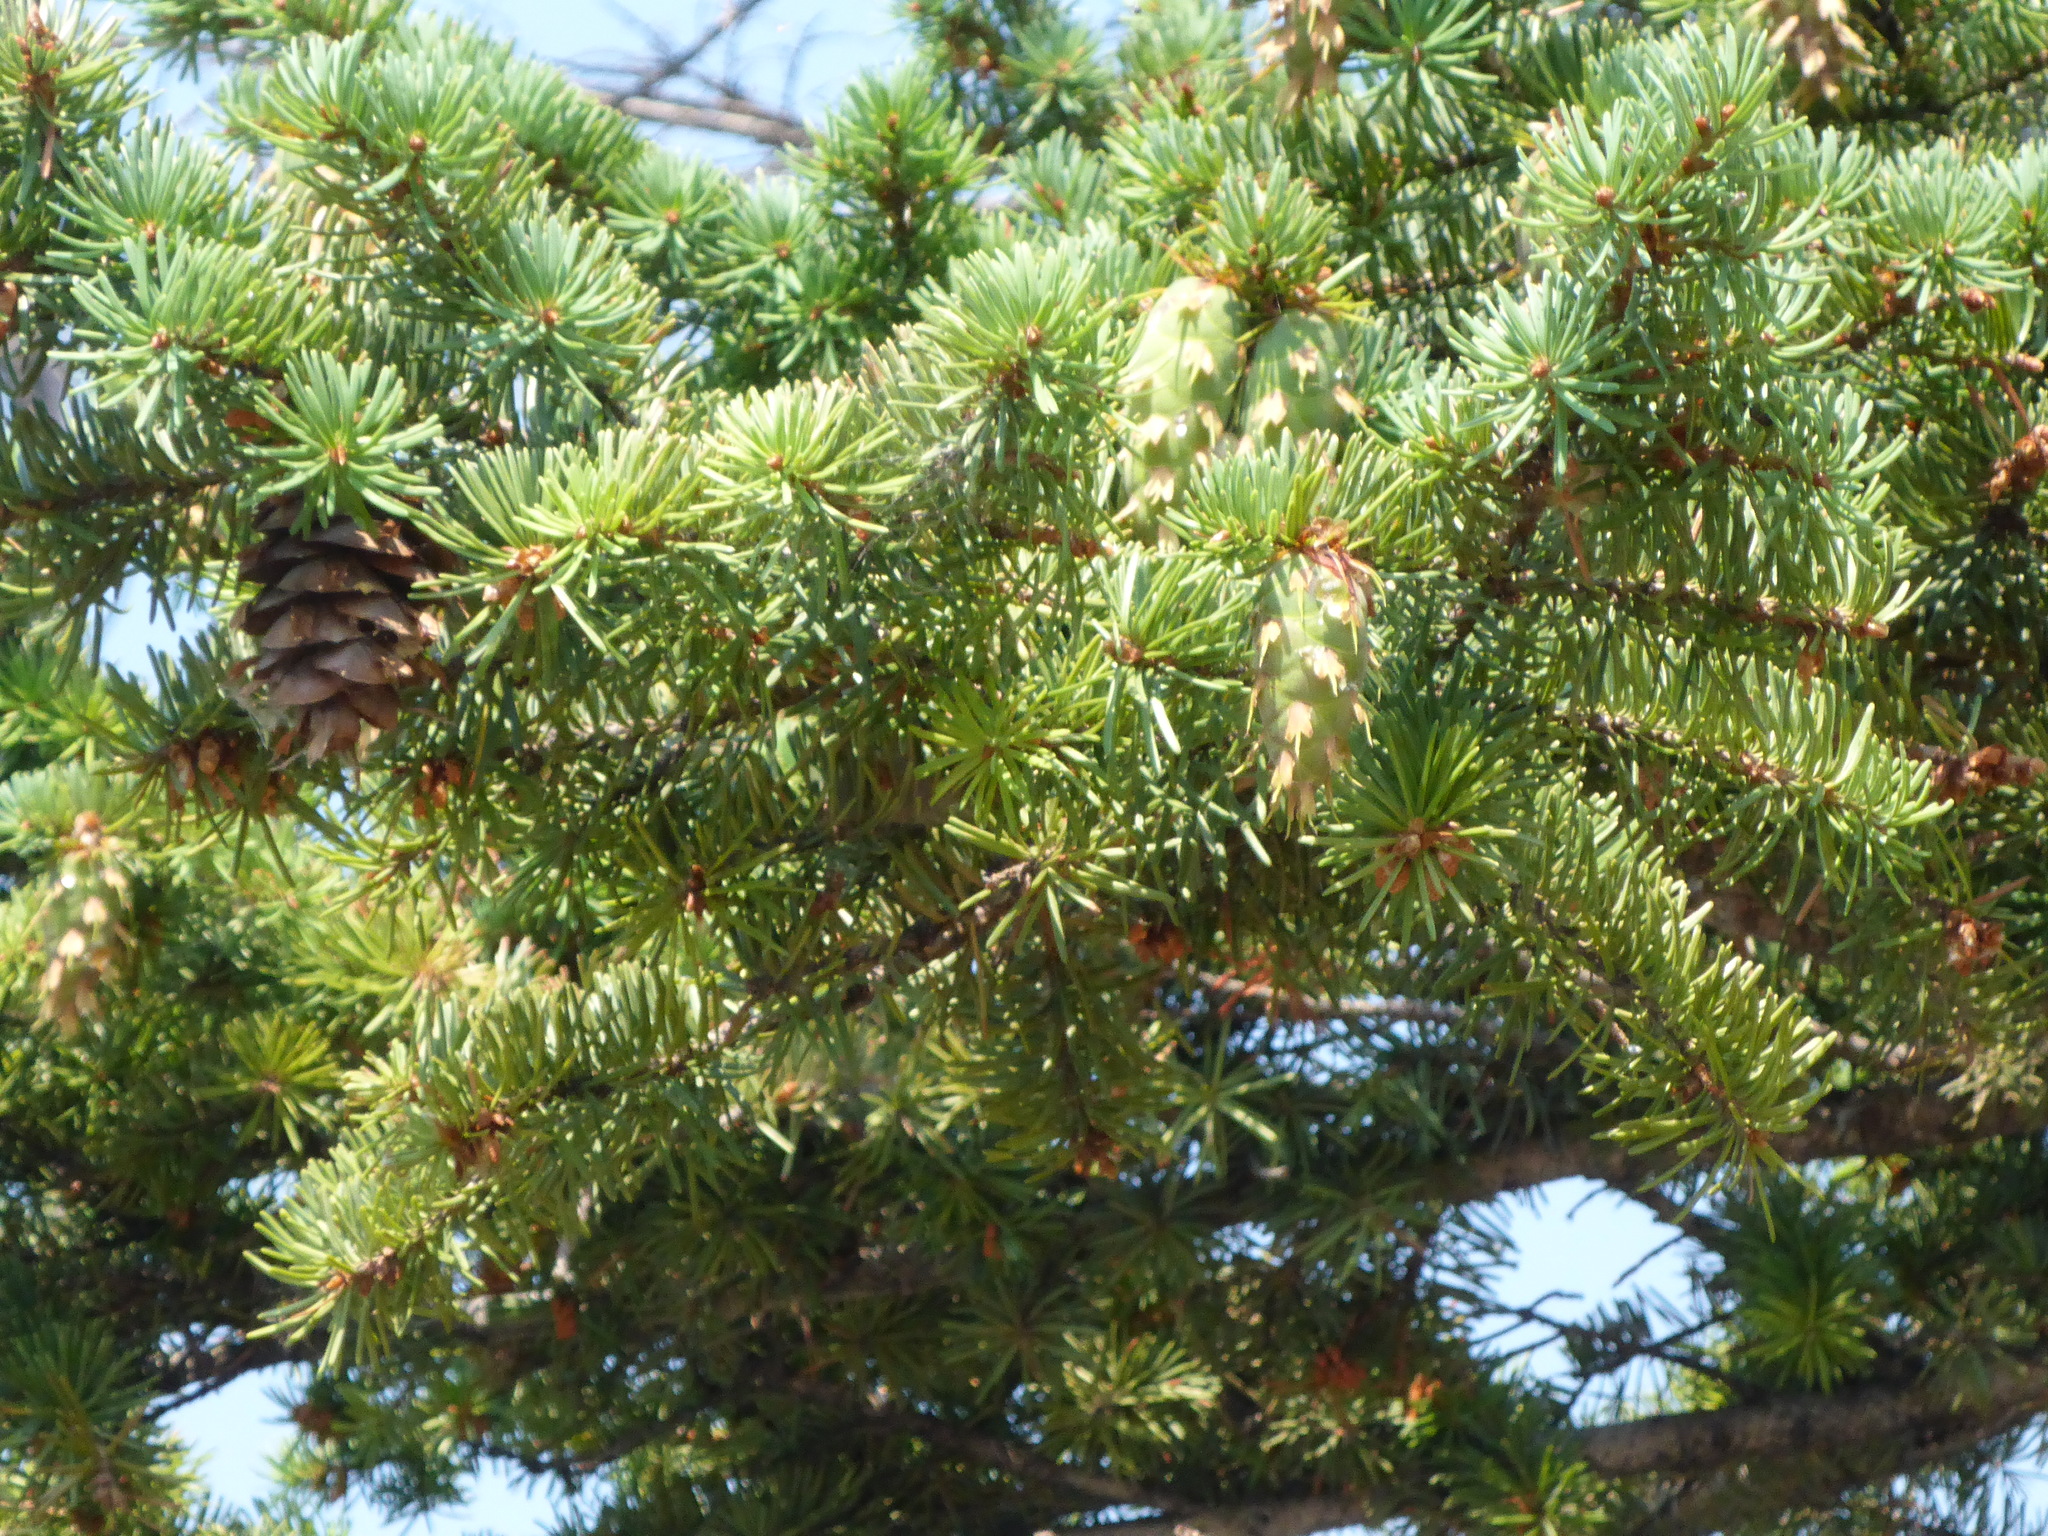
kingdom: Plantae
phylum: Tracheophyta
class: Pinopsida
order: Pinales
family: Pinaceae
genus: Pseudotsuga
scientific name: Pseudotsuga menziesii
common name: Douglas fir
